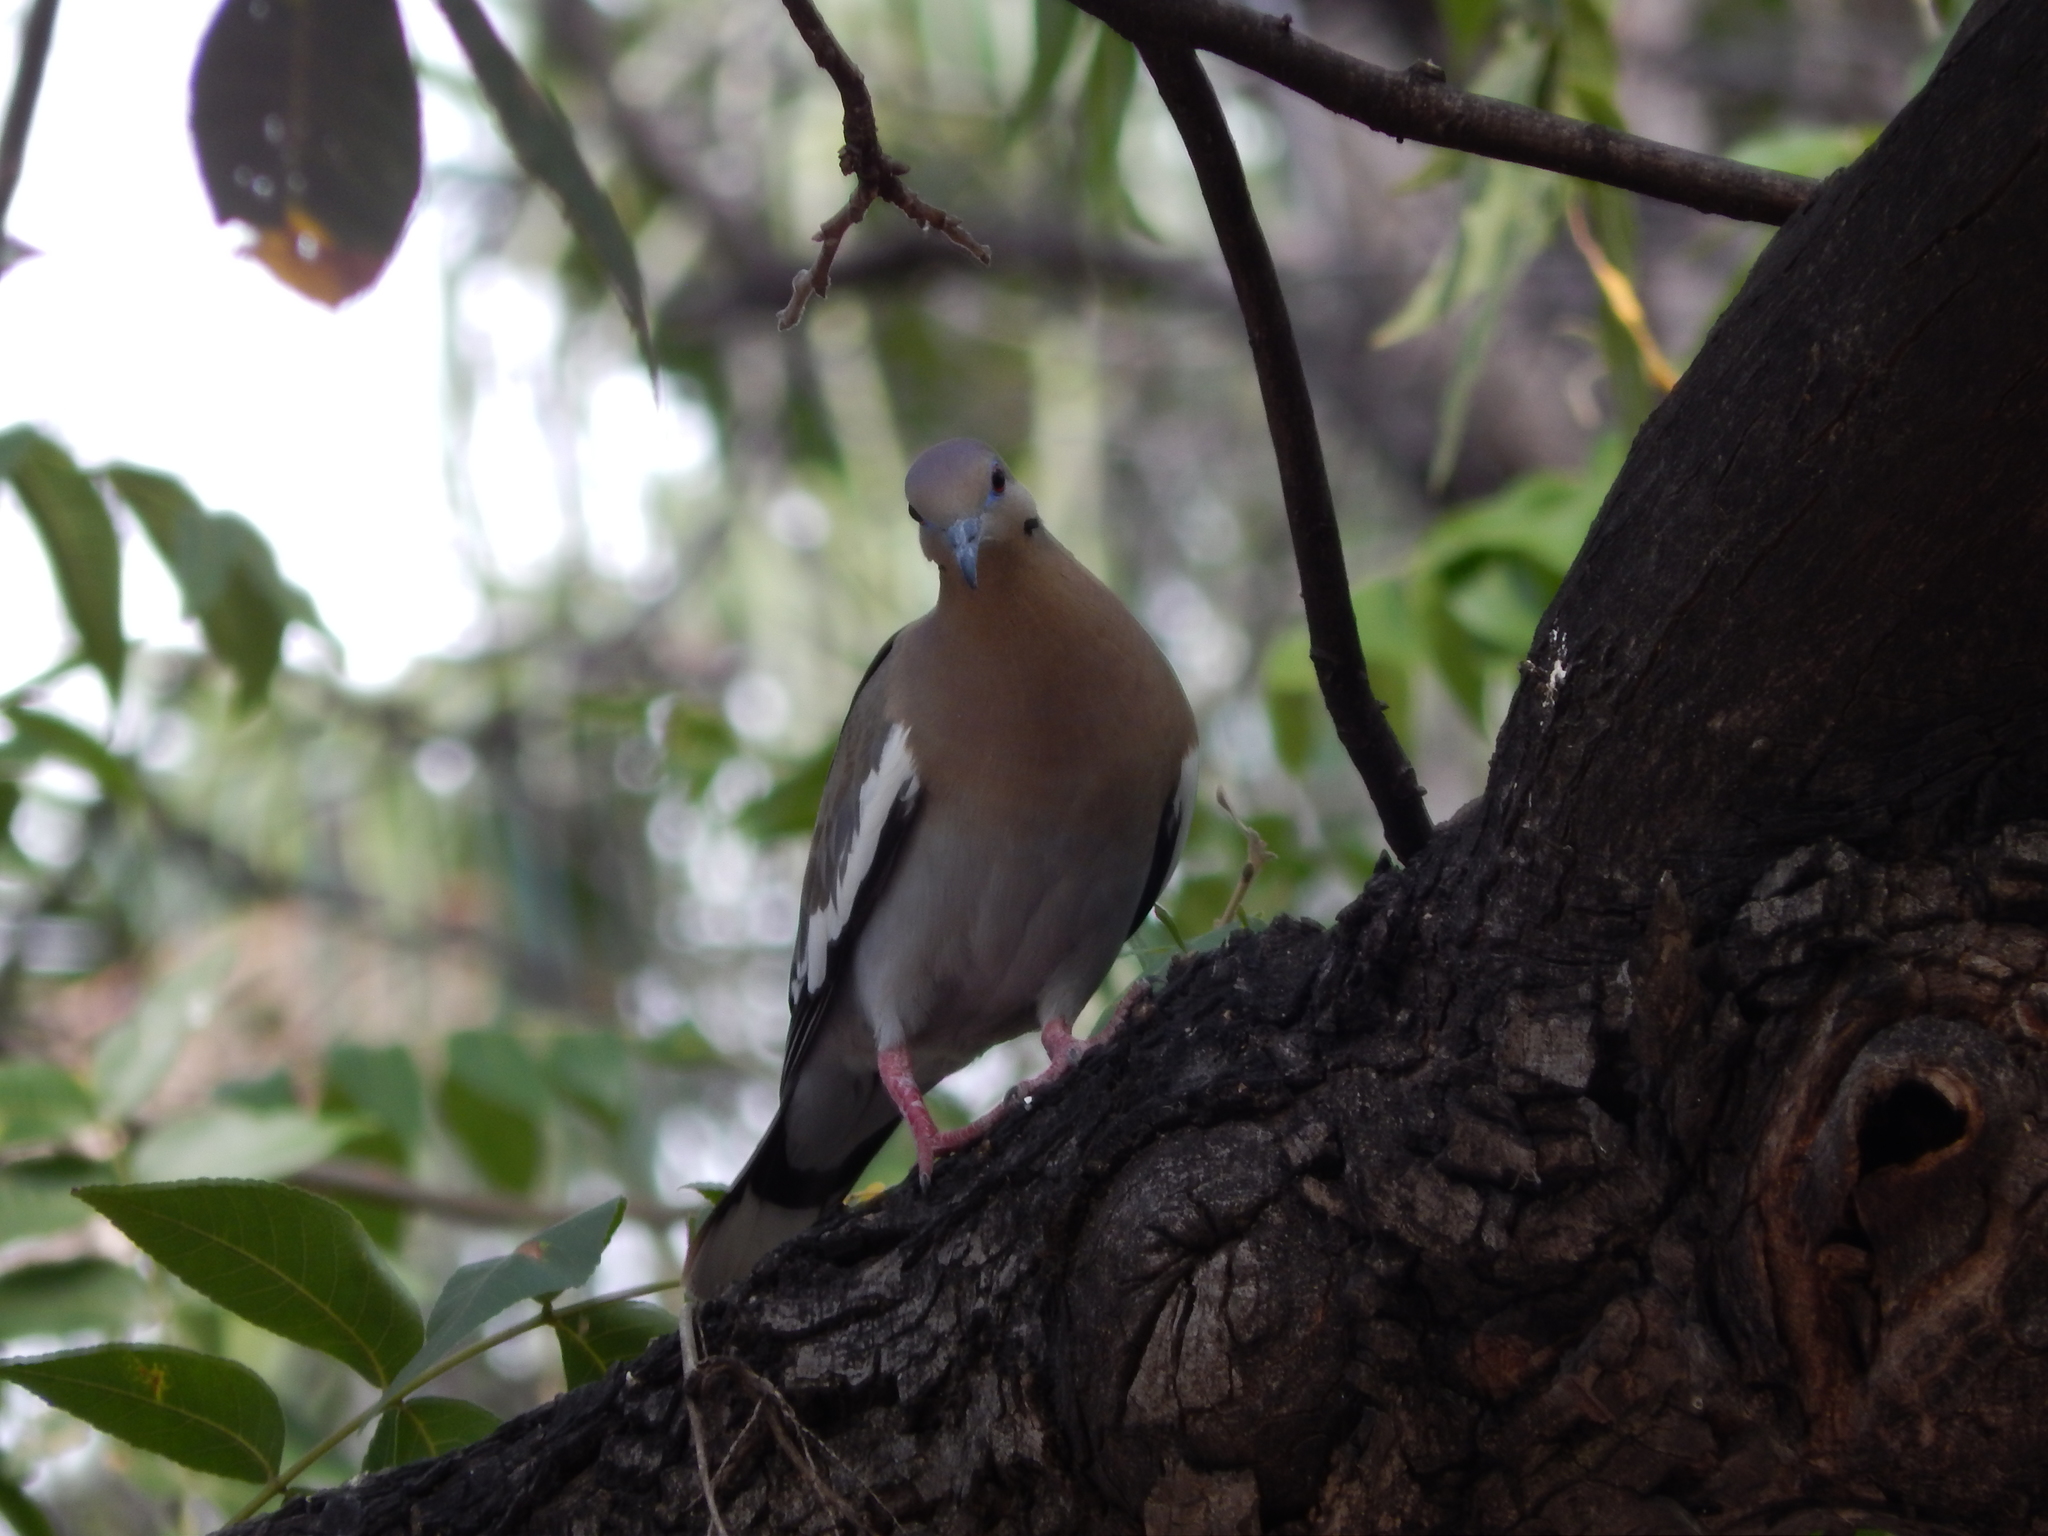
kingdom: Animalia
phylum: Chordata
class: Aves
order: Columbiformes
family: Columbidae
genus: Zenaida
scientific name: Zenaida asiatica
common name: White-winged dove
